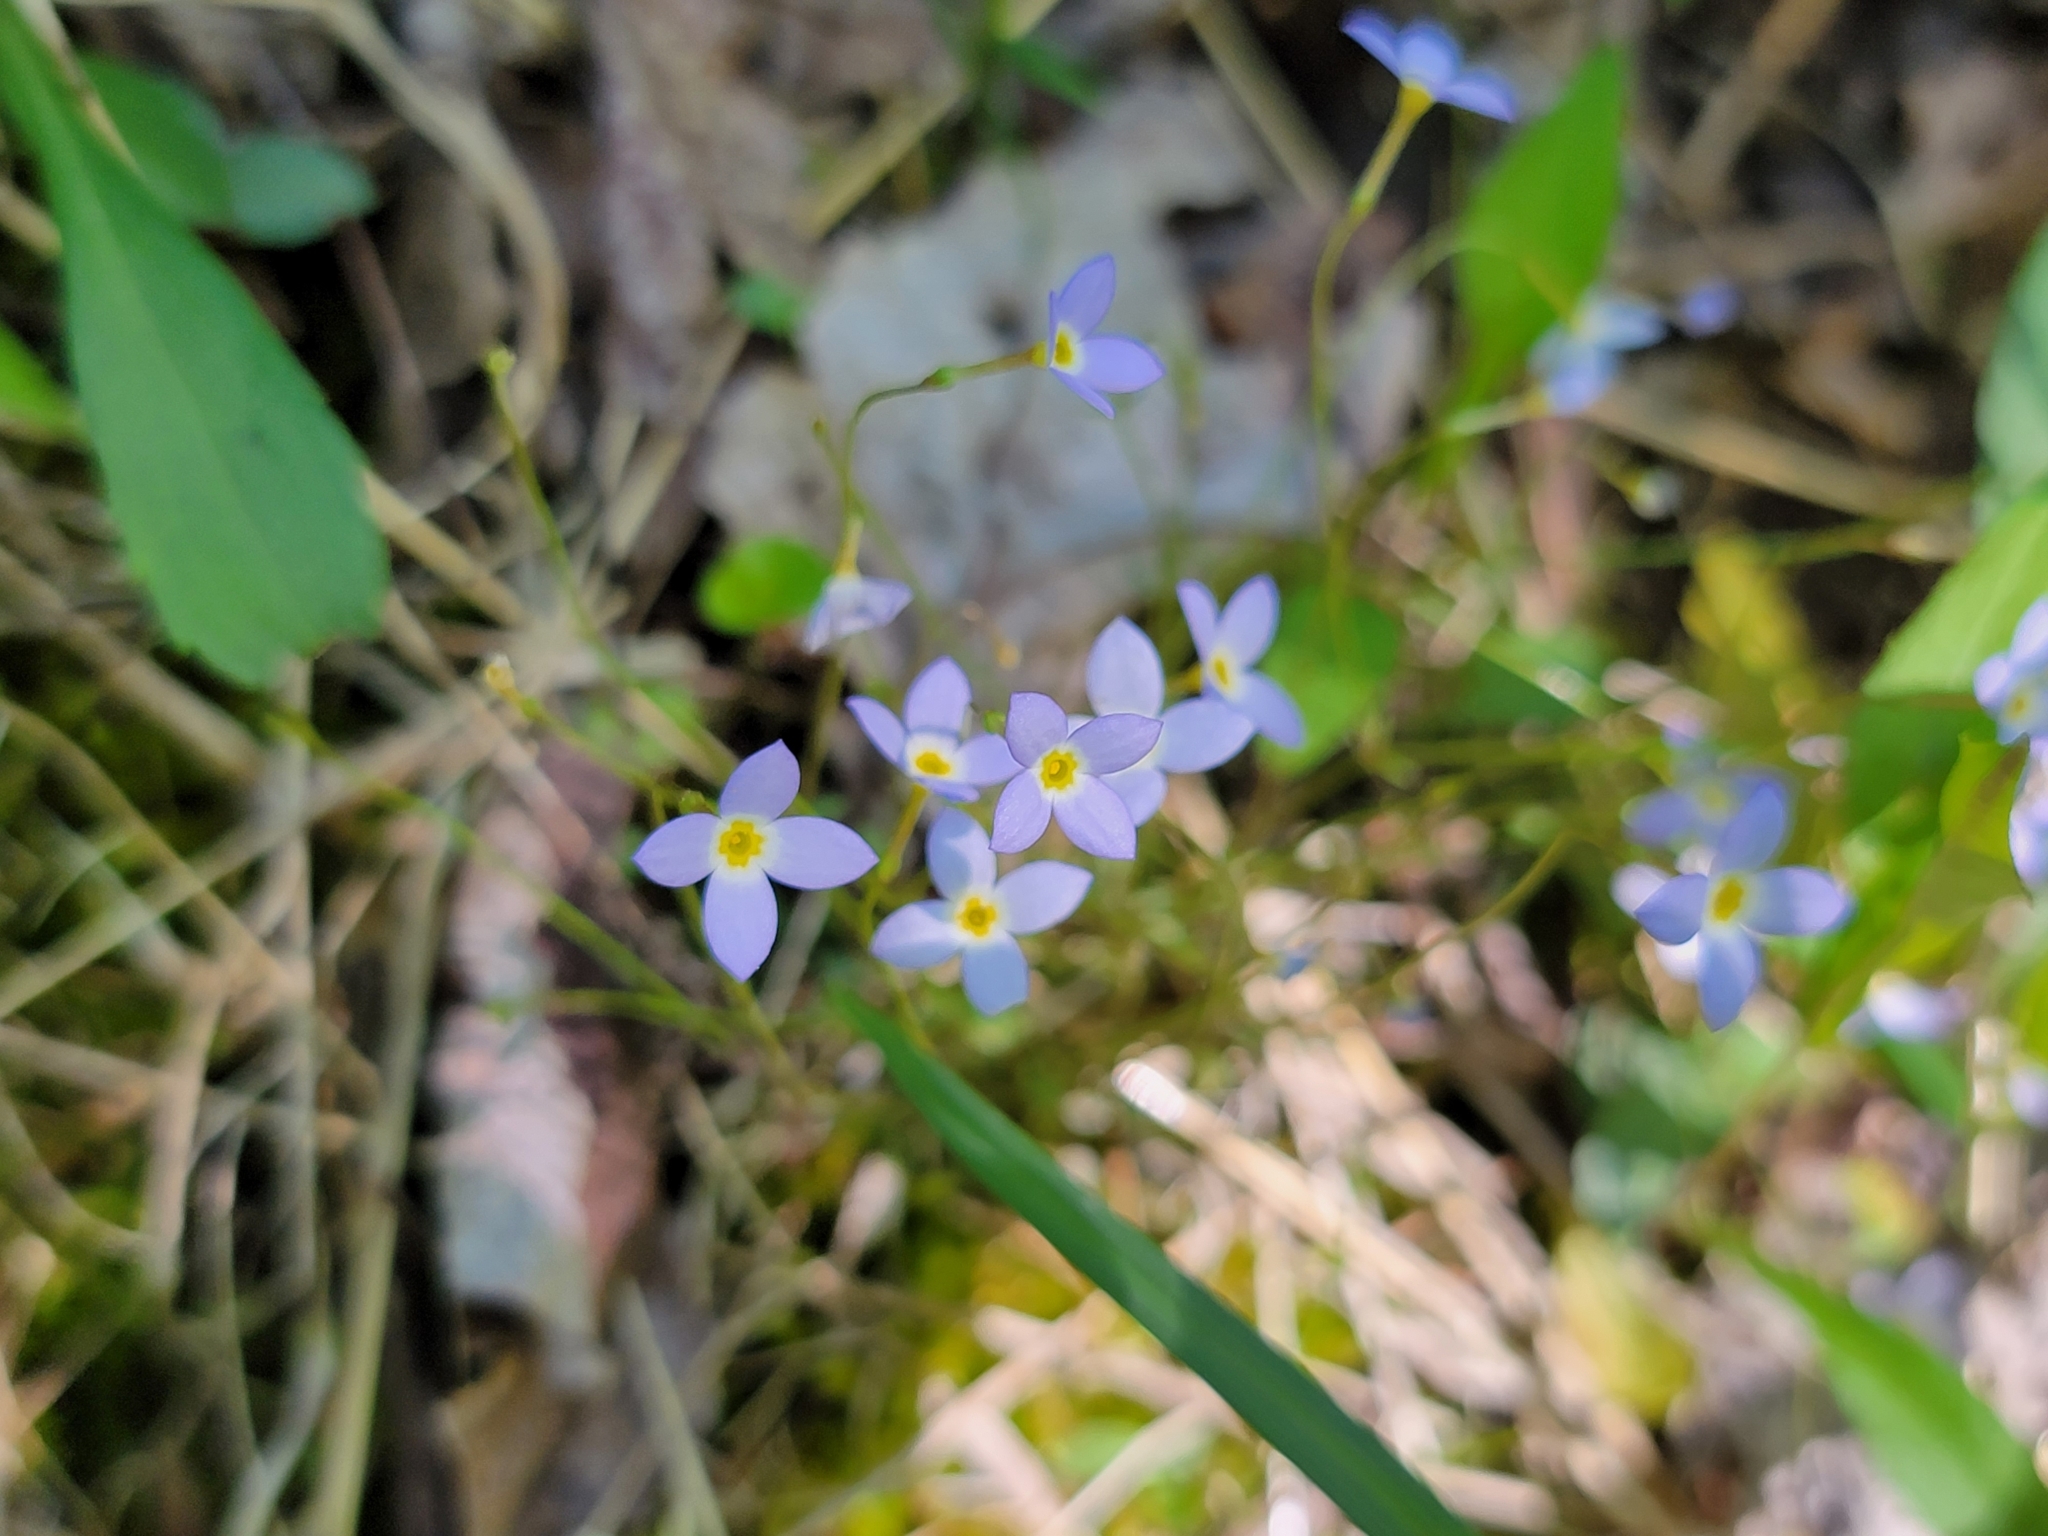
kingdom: Plantae
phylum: Tracheophyta
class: Magnoliopsida
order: Gentianales
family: Rubiaceae
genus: Houstonia
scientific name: Houstonia caerulea
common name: Bluets
